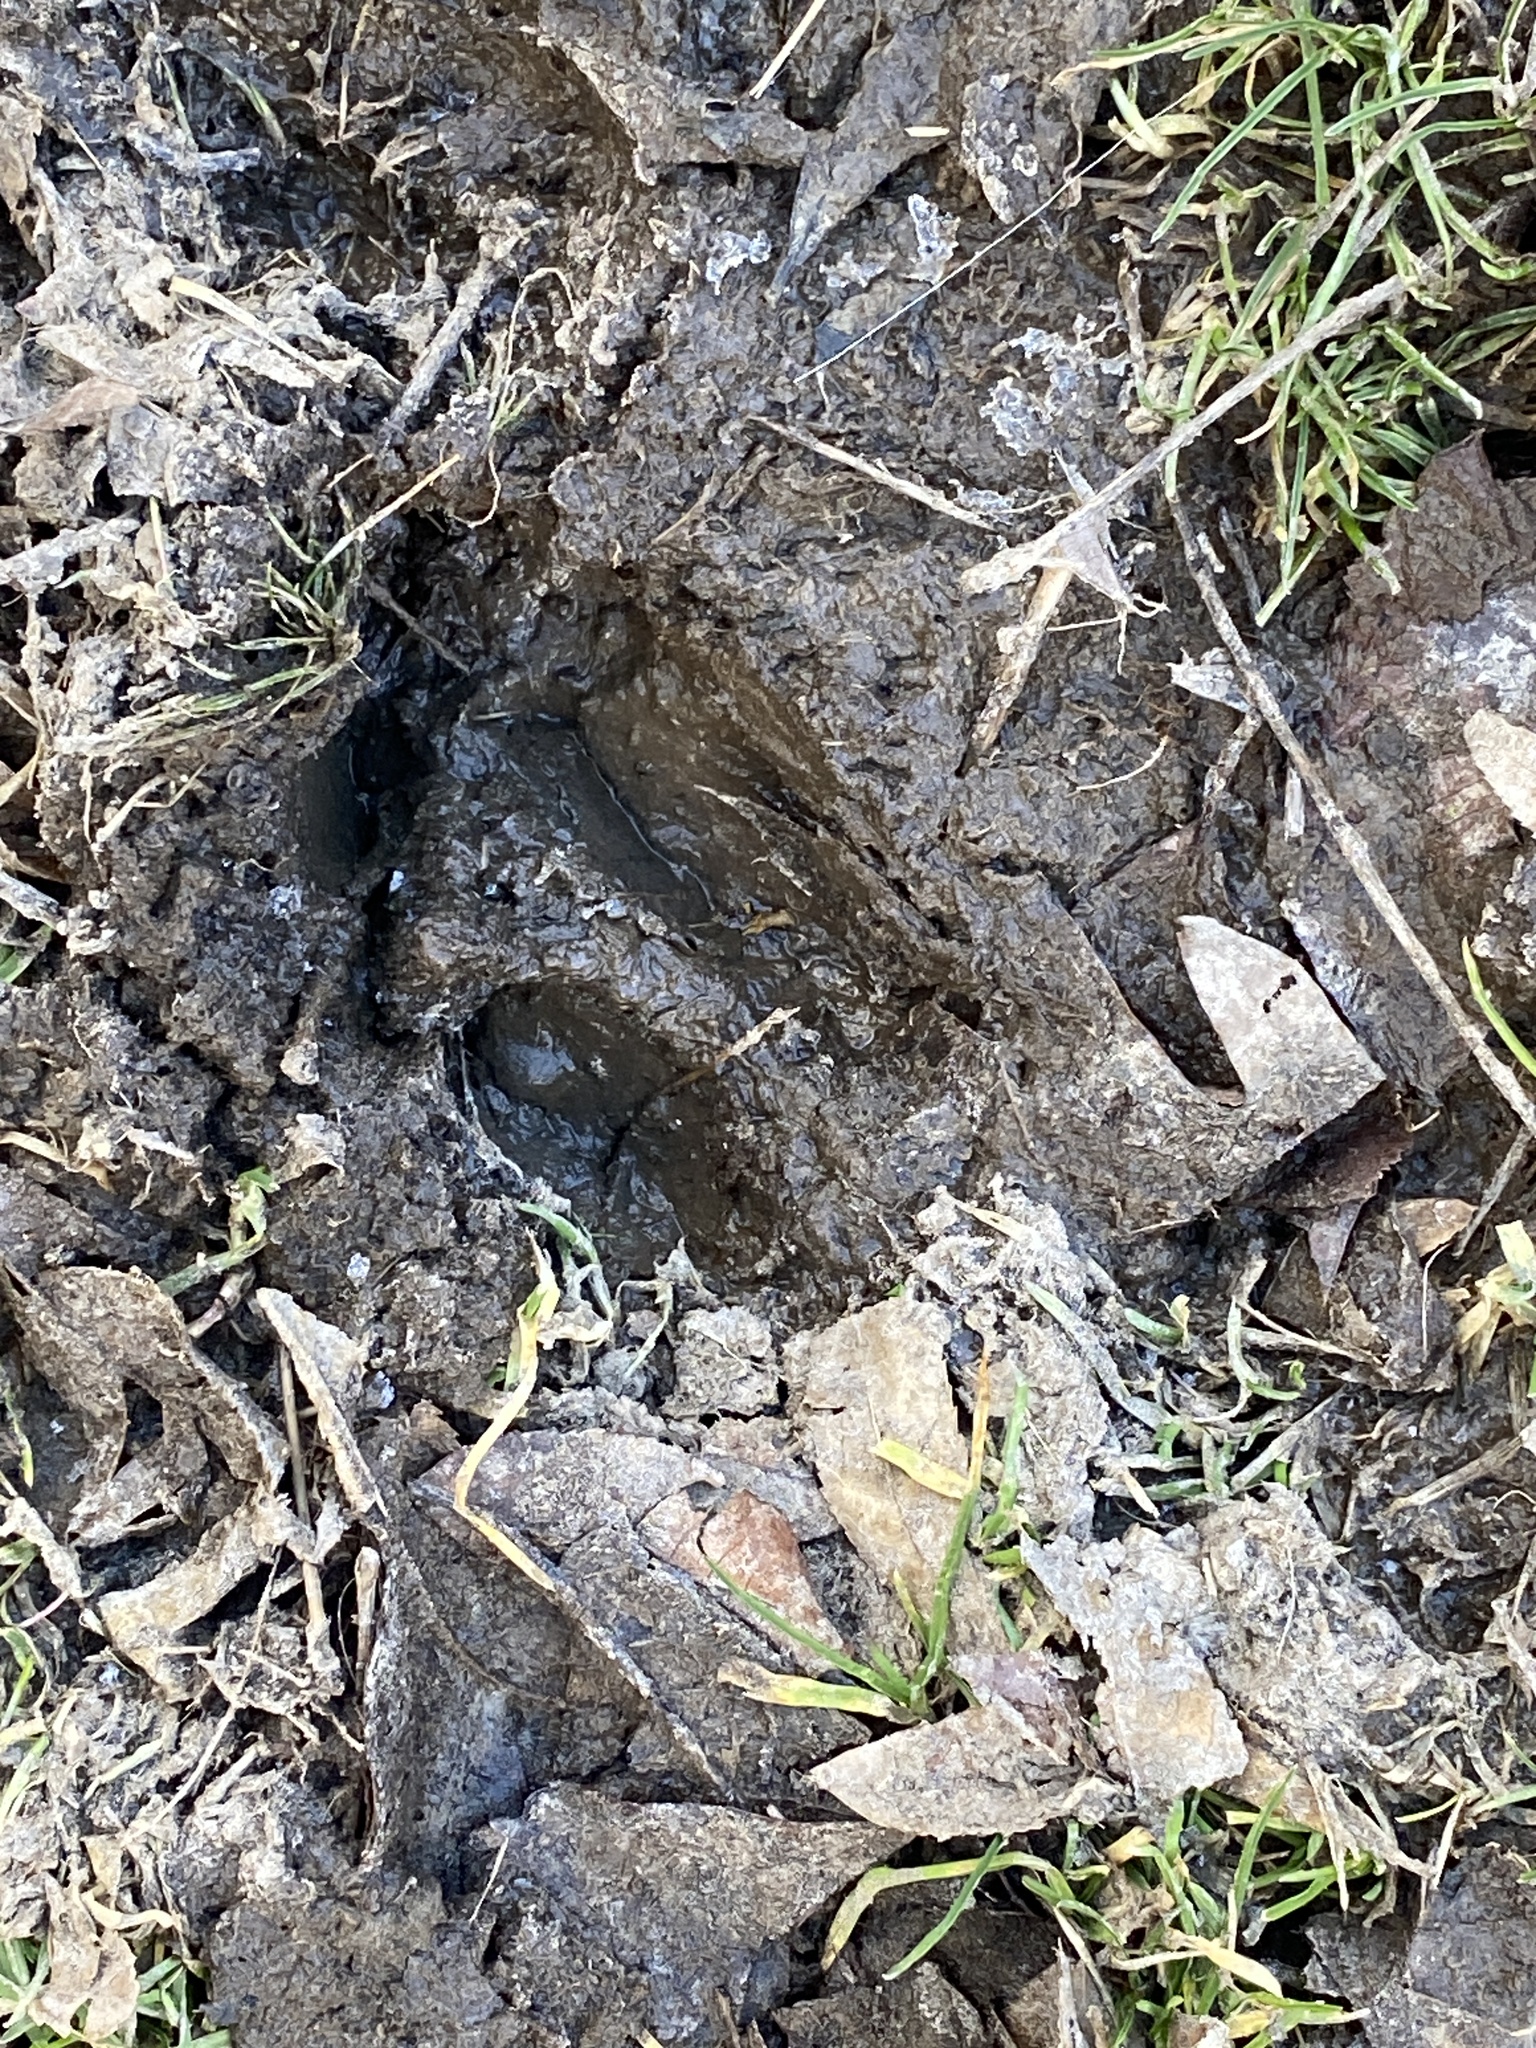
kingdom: Animalia
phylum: Chordata
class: Mammalia
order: Artiodactyla
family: Cervidae
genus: Odocoileus
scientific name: Odocoileus virginianus
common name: White-tailed deer
